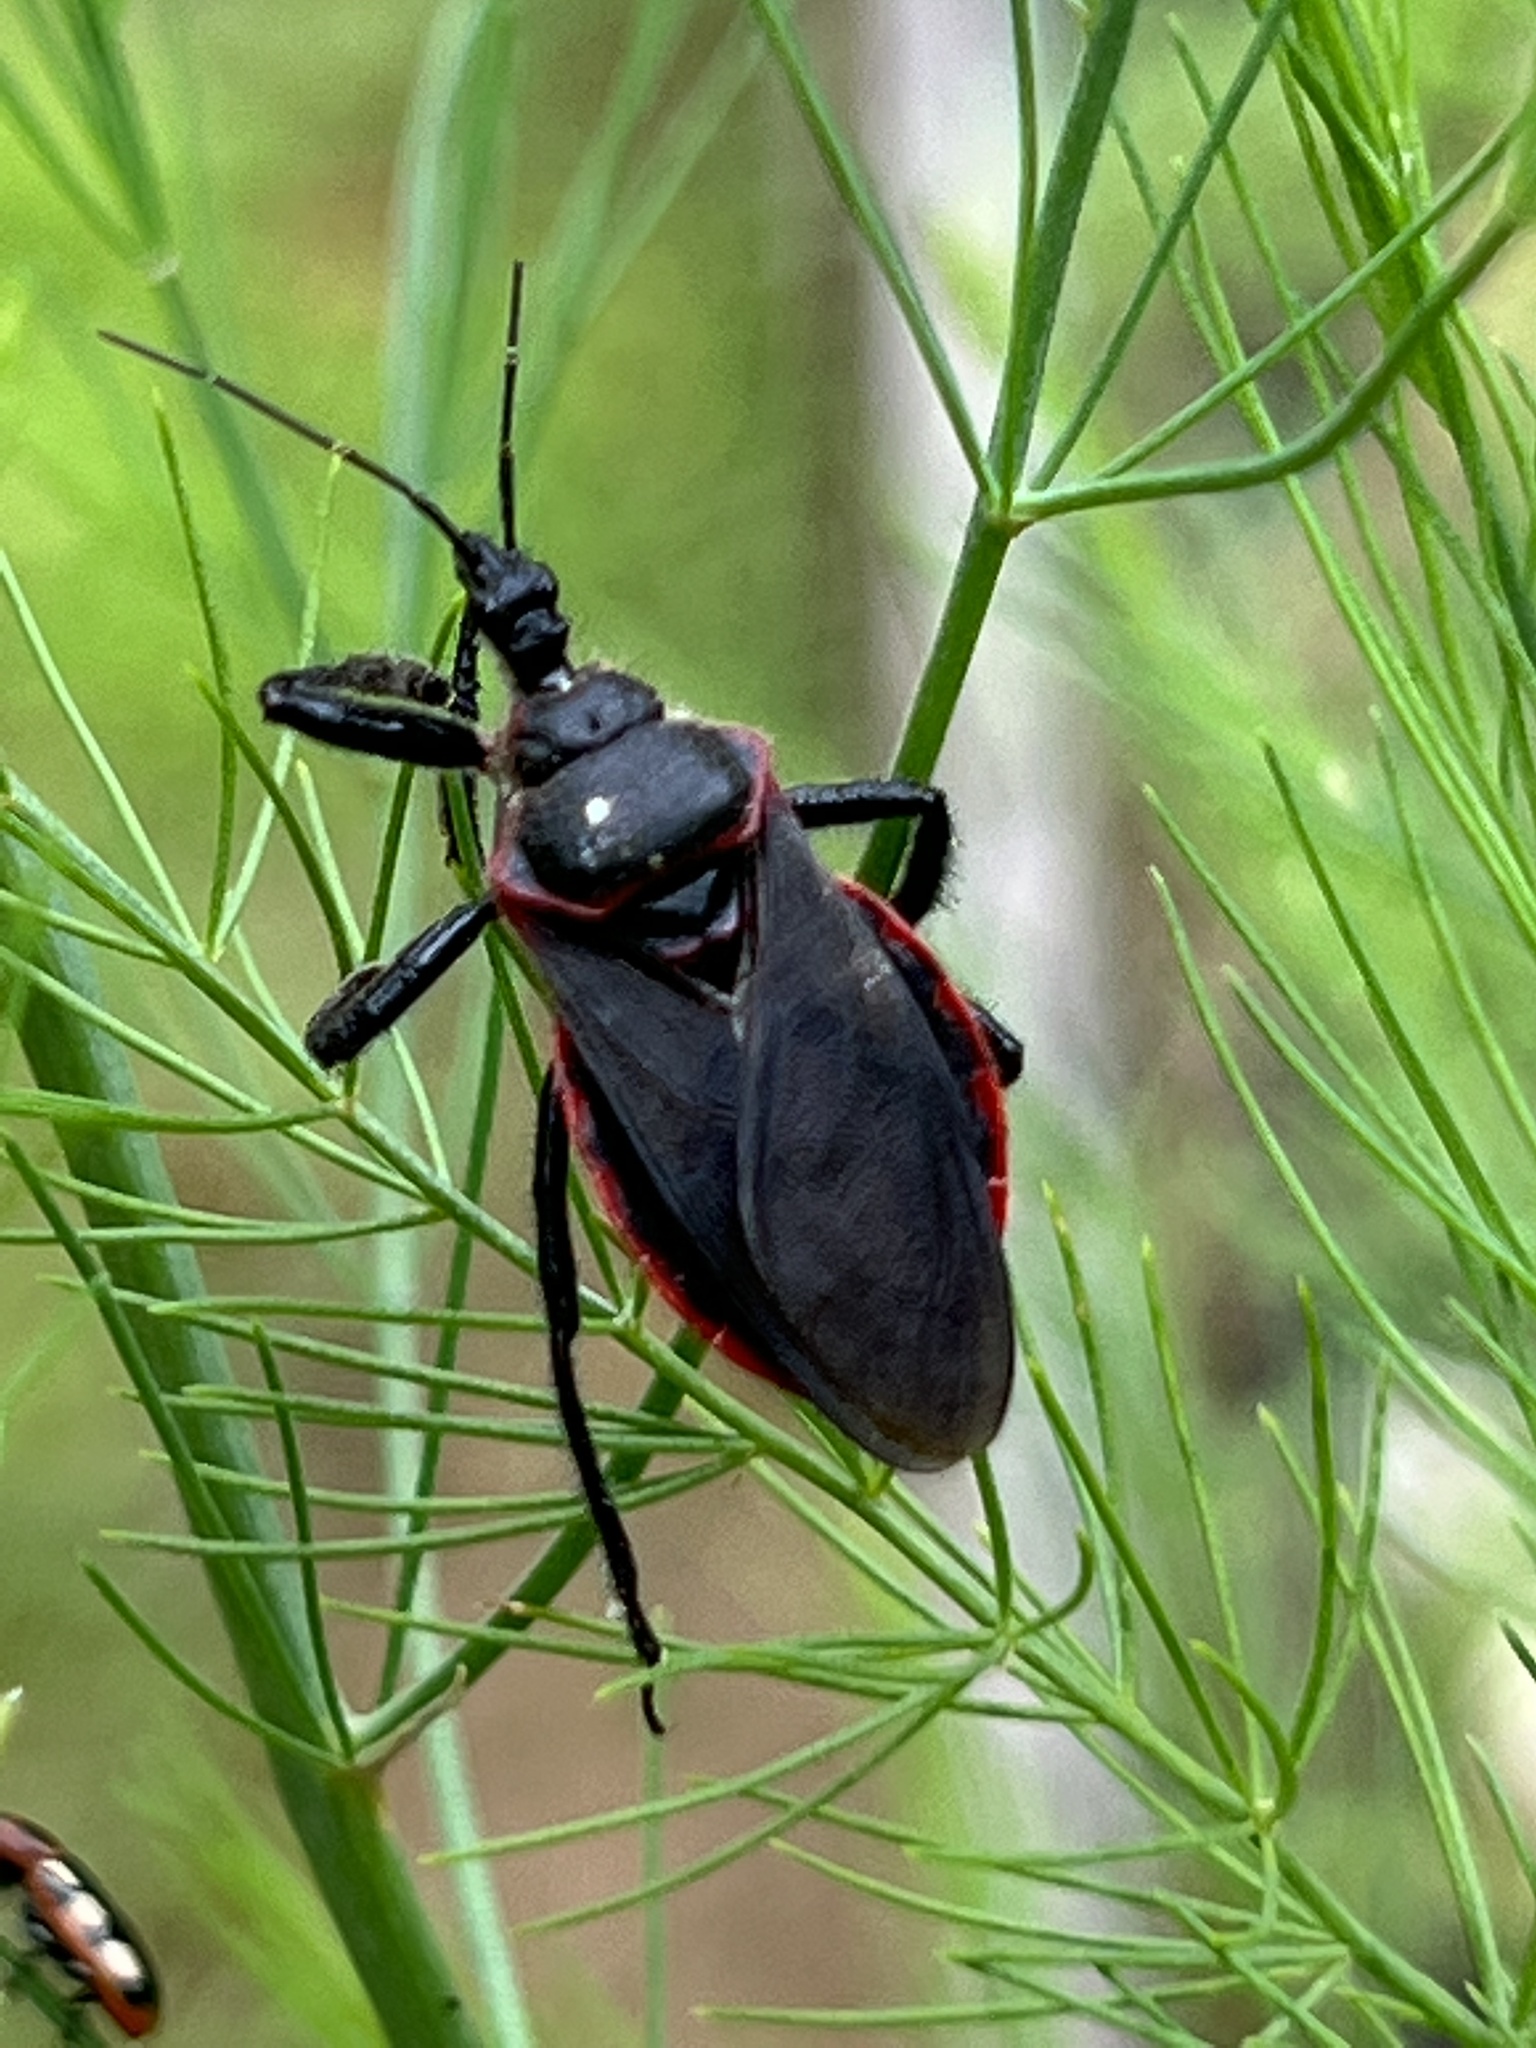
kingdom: Animalia
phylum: Arthropoda
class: Insecta
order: Hemiptera
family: Reduviidae
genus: Apiomerus
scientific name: Apiomerus crassipes
